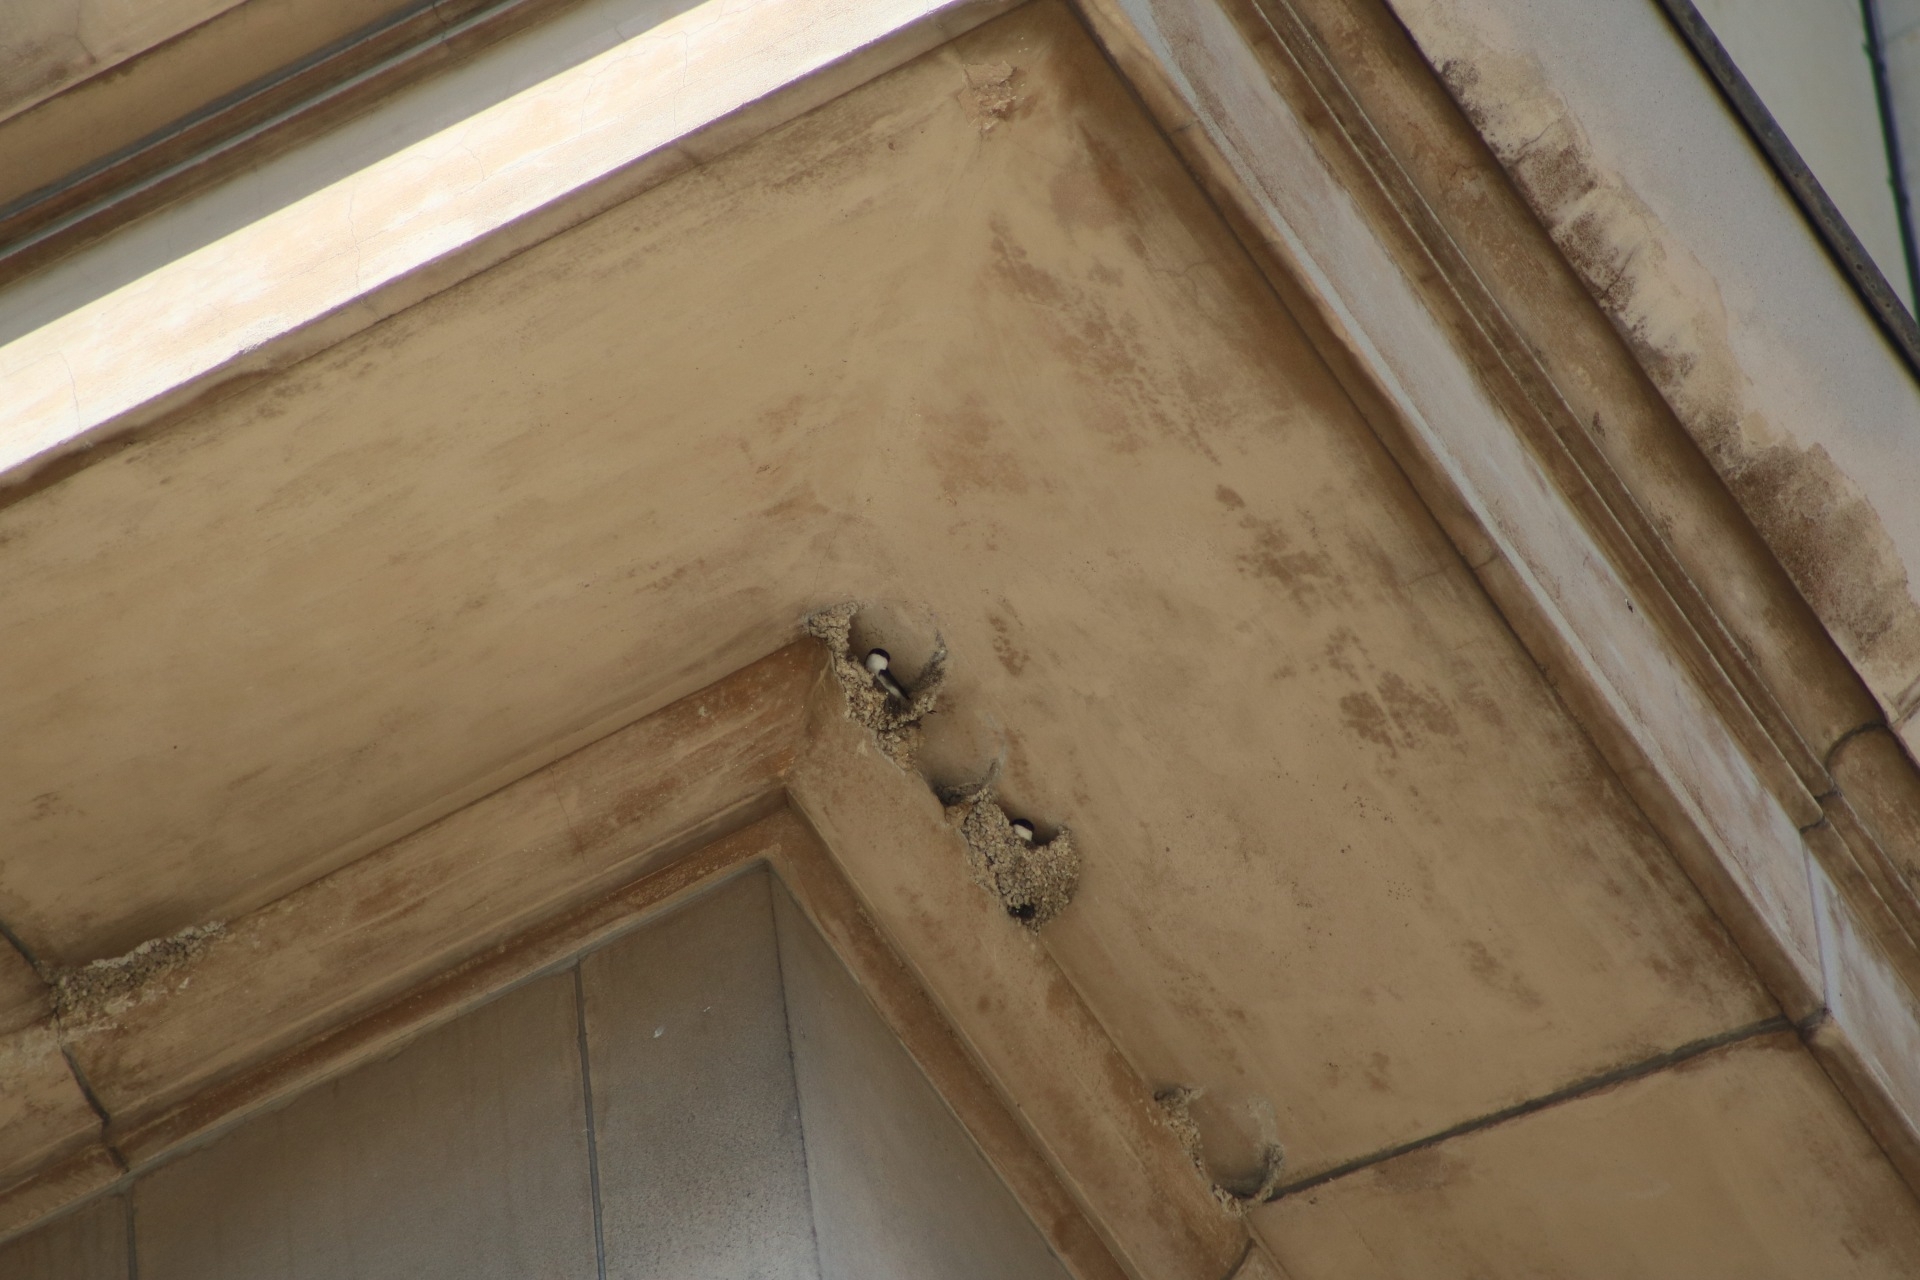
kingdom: Animalia
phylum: Chordata
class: Aves
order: Passeriformes
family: Hirundinidae
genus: Delichon
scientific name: Delichon urbicum
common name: Common house martin
